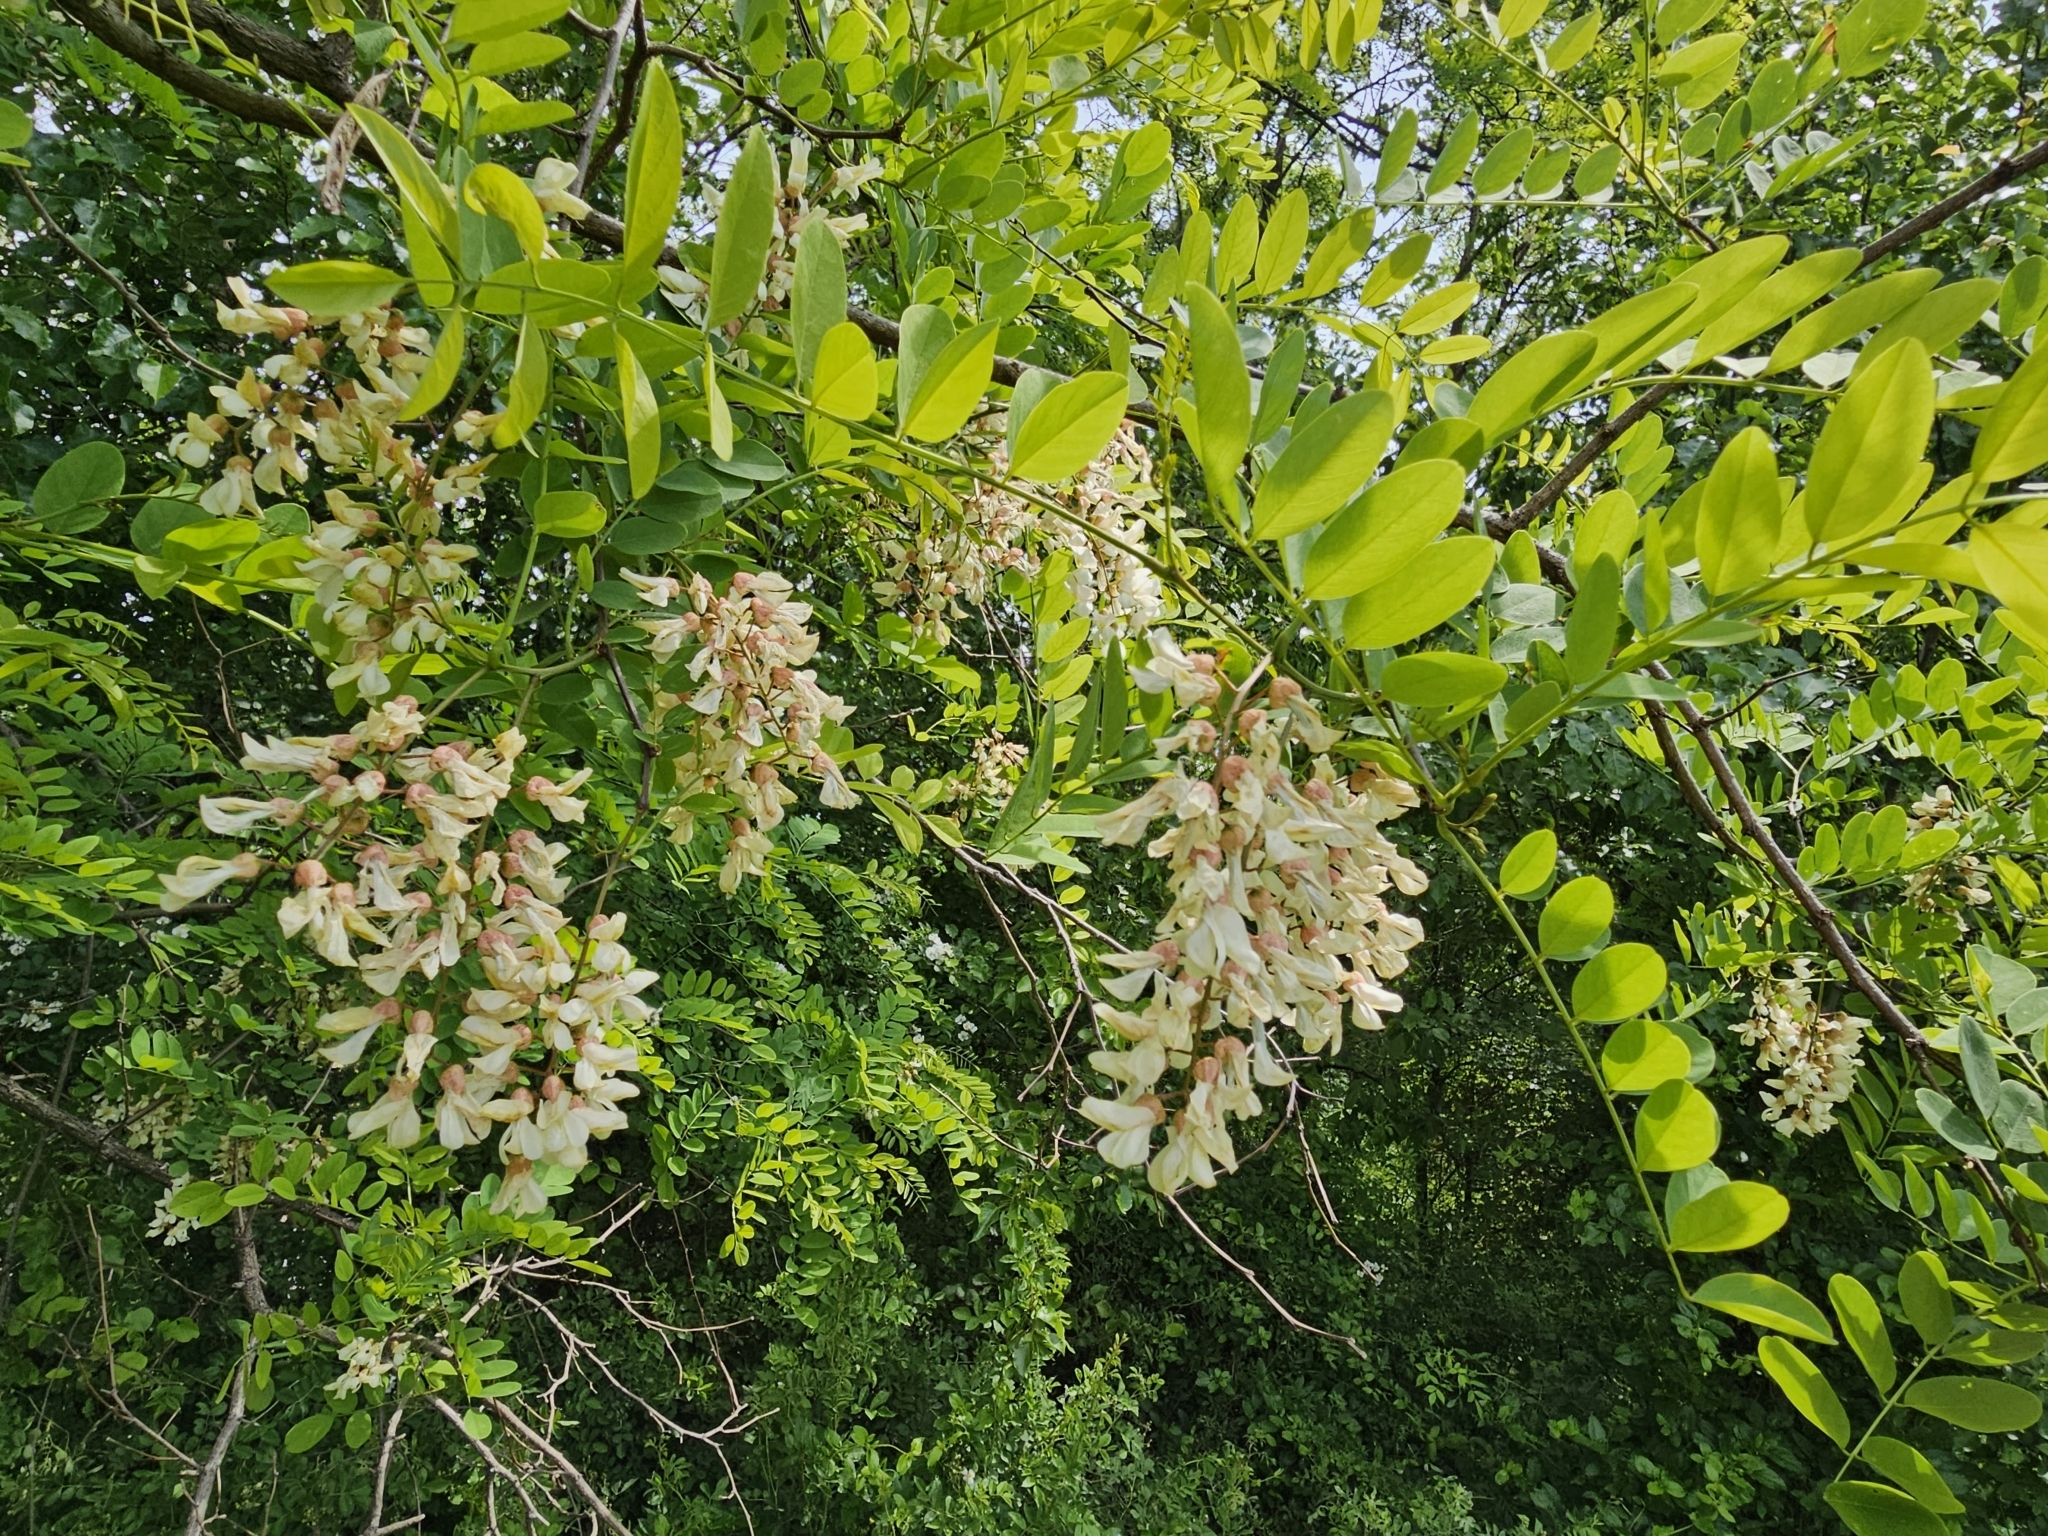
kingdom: Plantae
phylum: Tracheophyta
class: Magnoliopsida
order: Fabales
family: Fabaceae
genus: Robinia
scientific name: Robinia pseudoacacia
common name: Black locust
